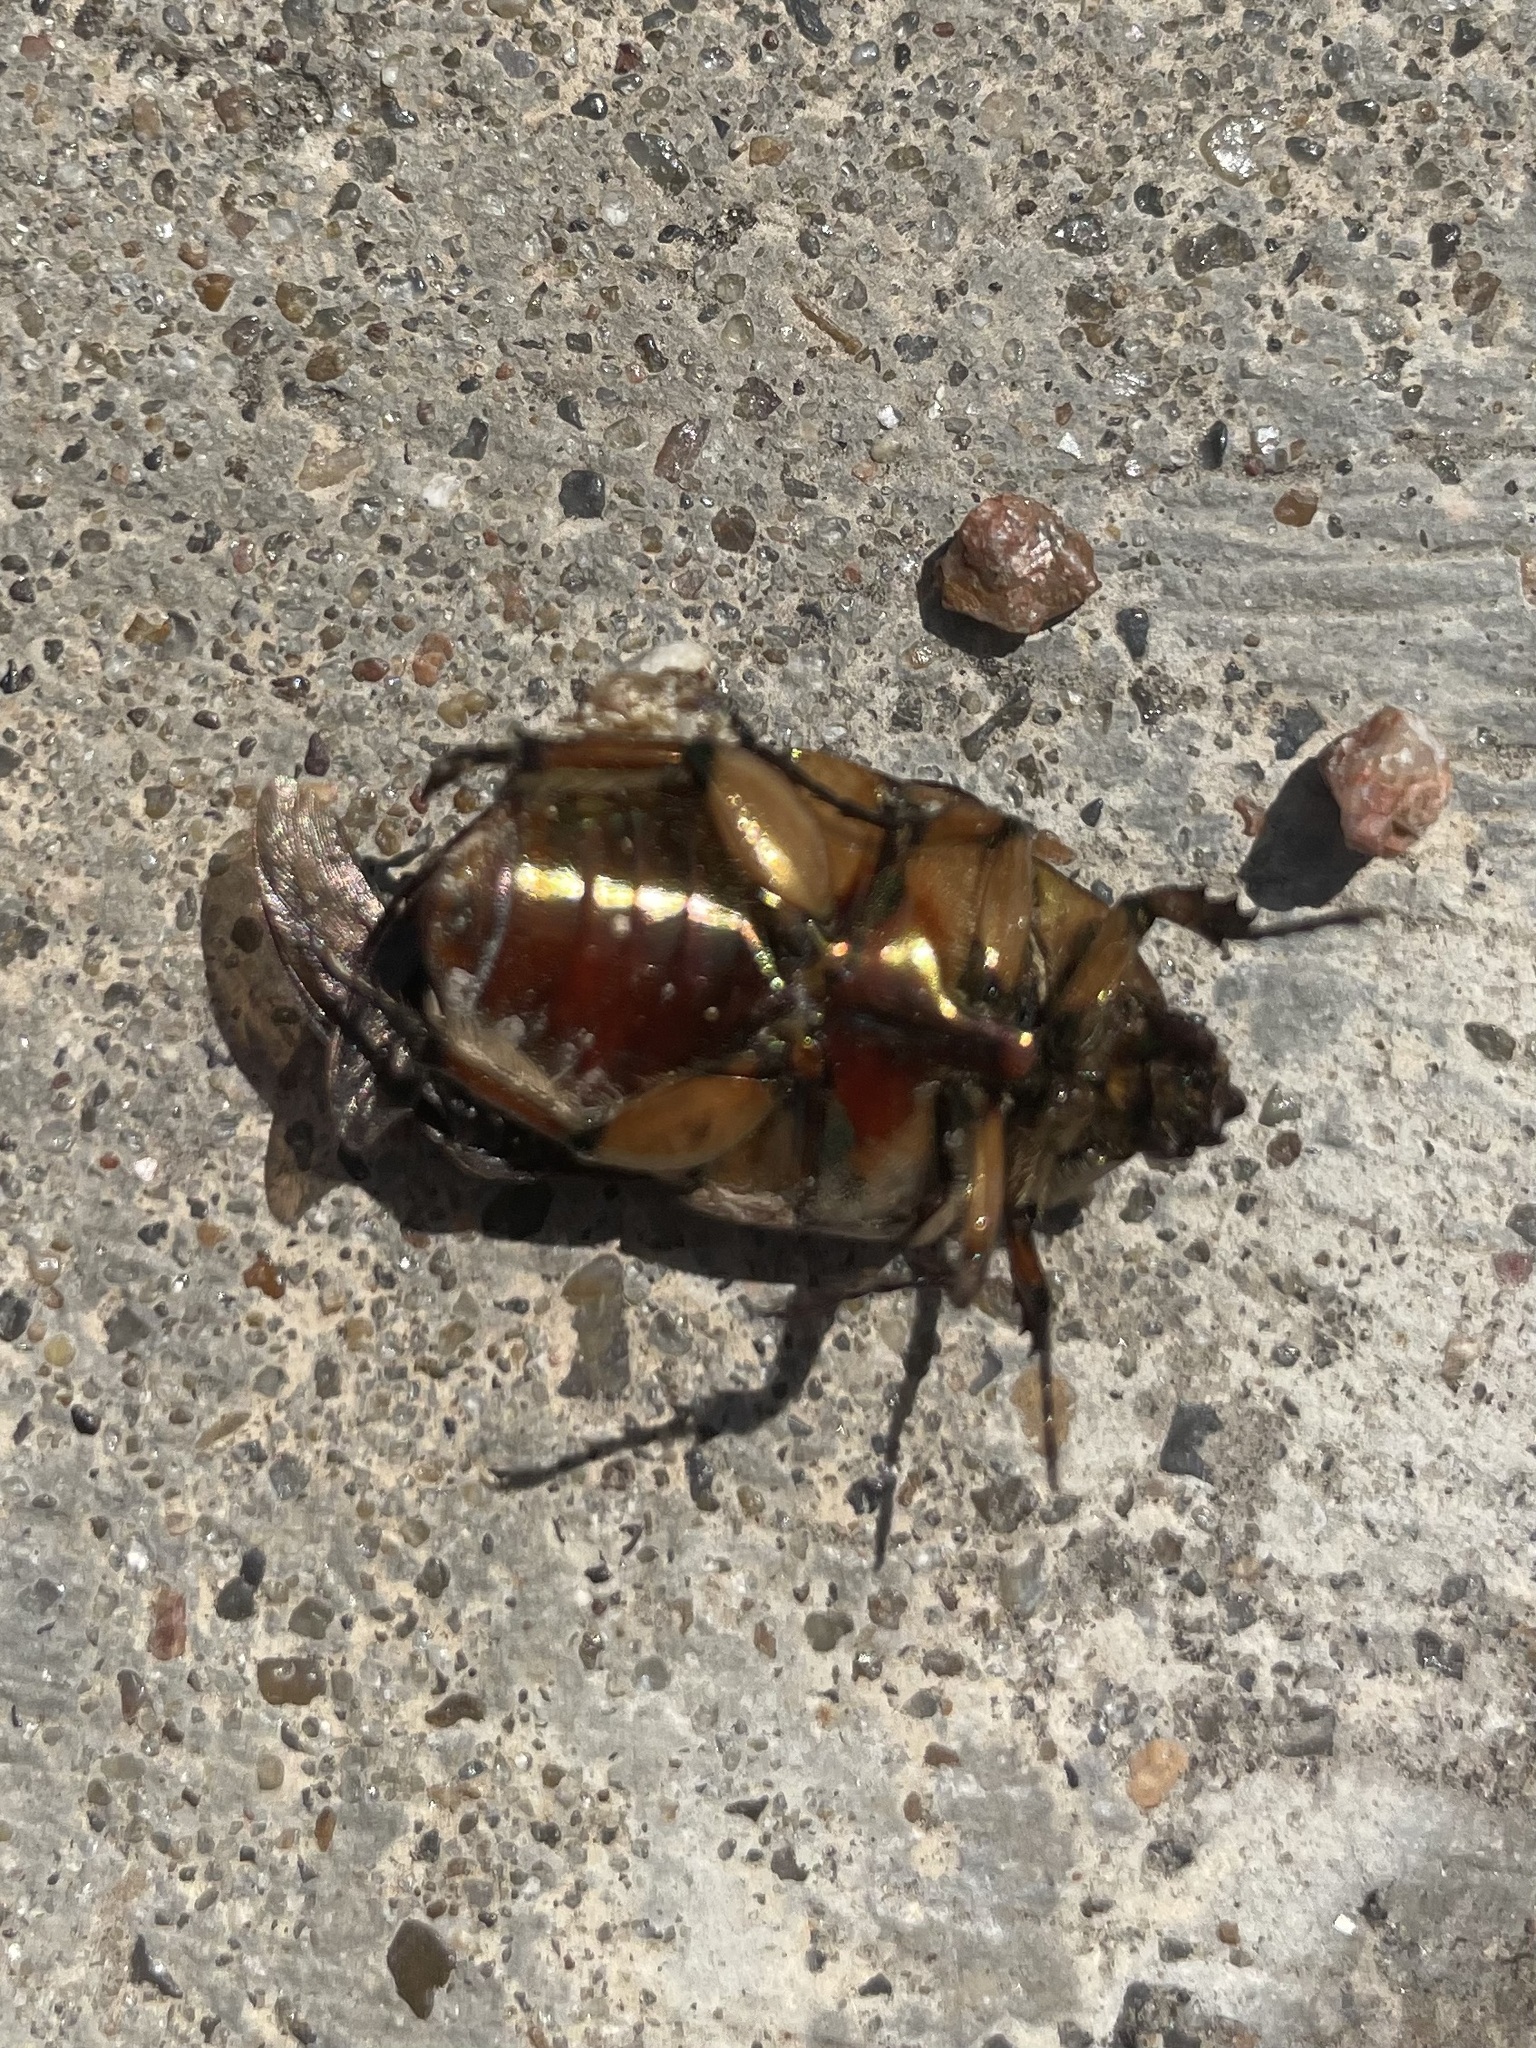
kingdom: Animalia
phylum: Arthropoda
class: Insecta
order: Coleoptera
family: Scarabaeidae
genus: Cotinis
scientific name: Cotinis nitida
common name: Common green june beetle
